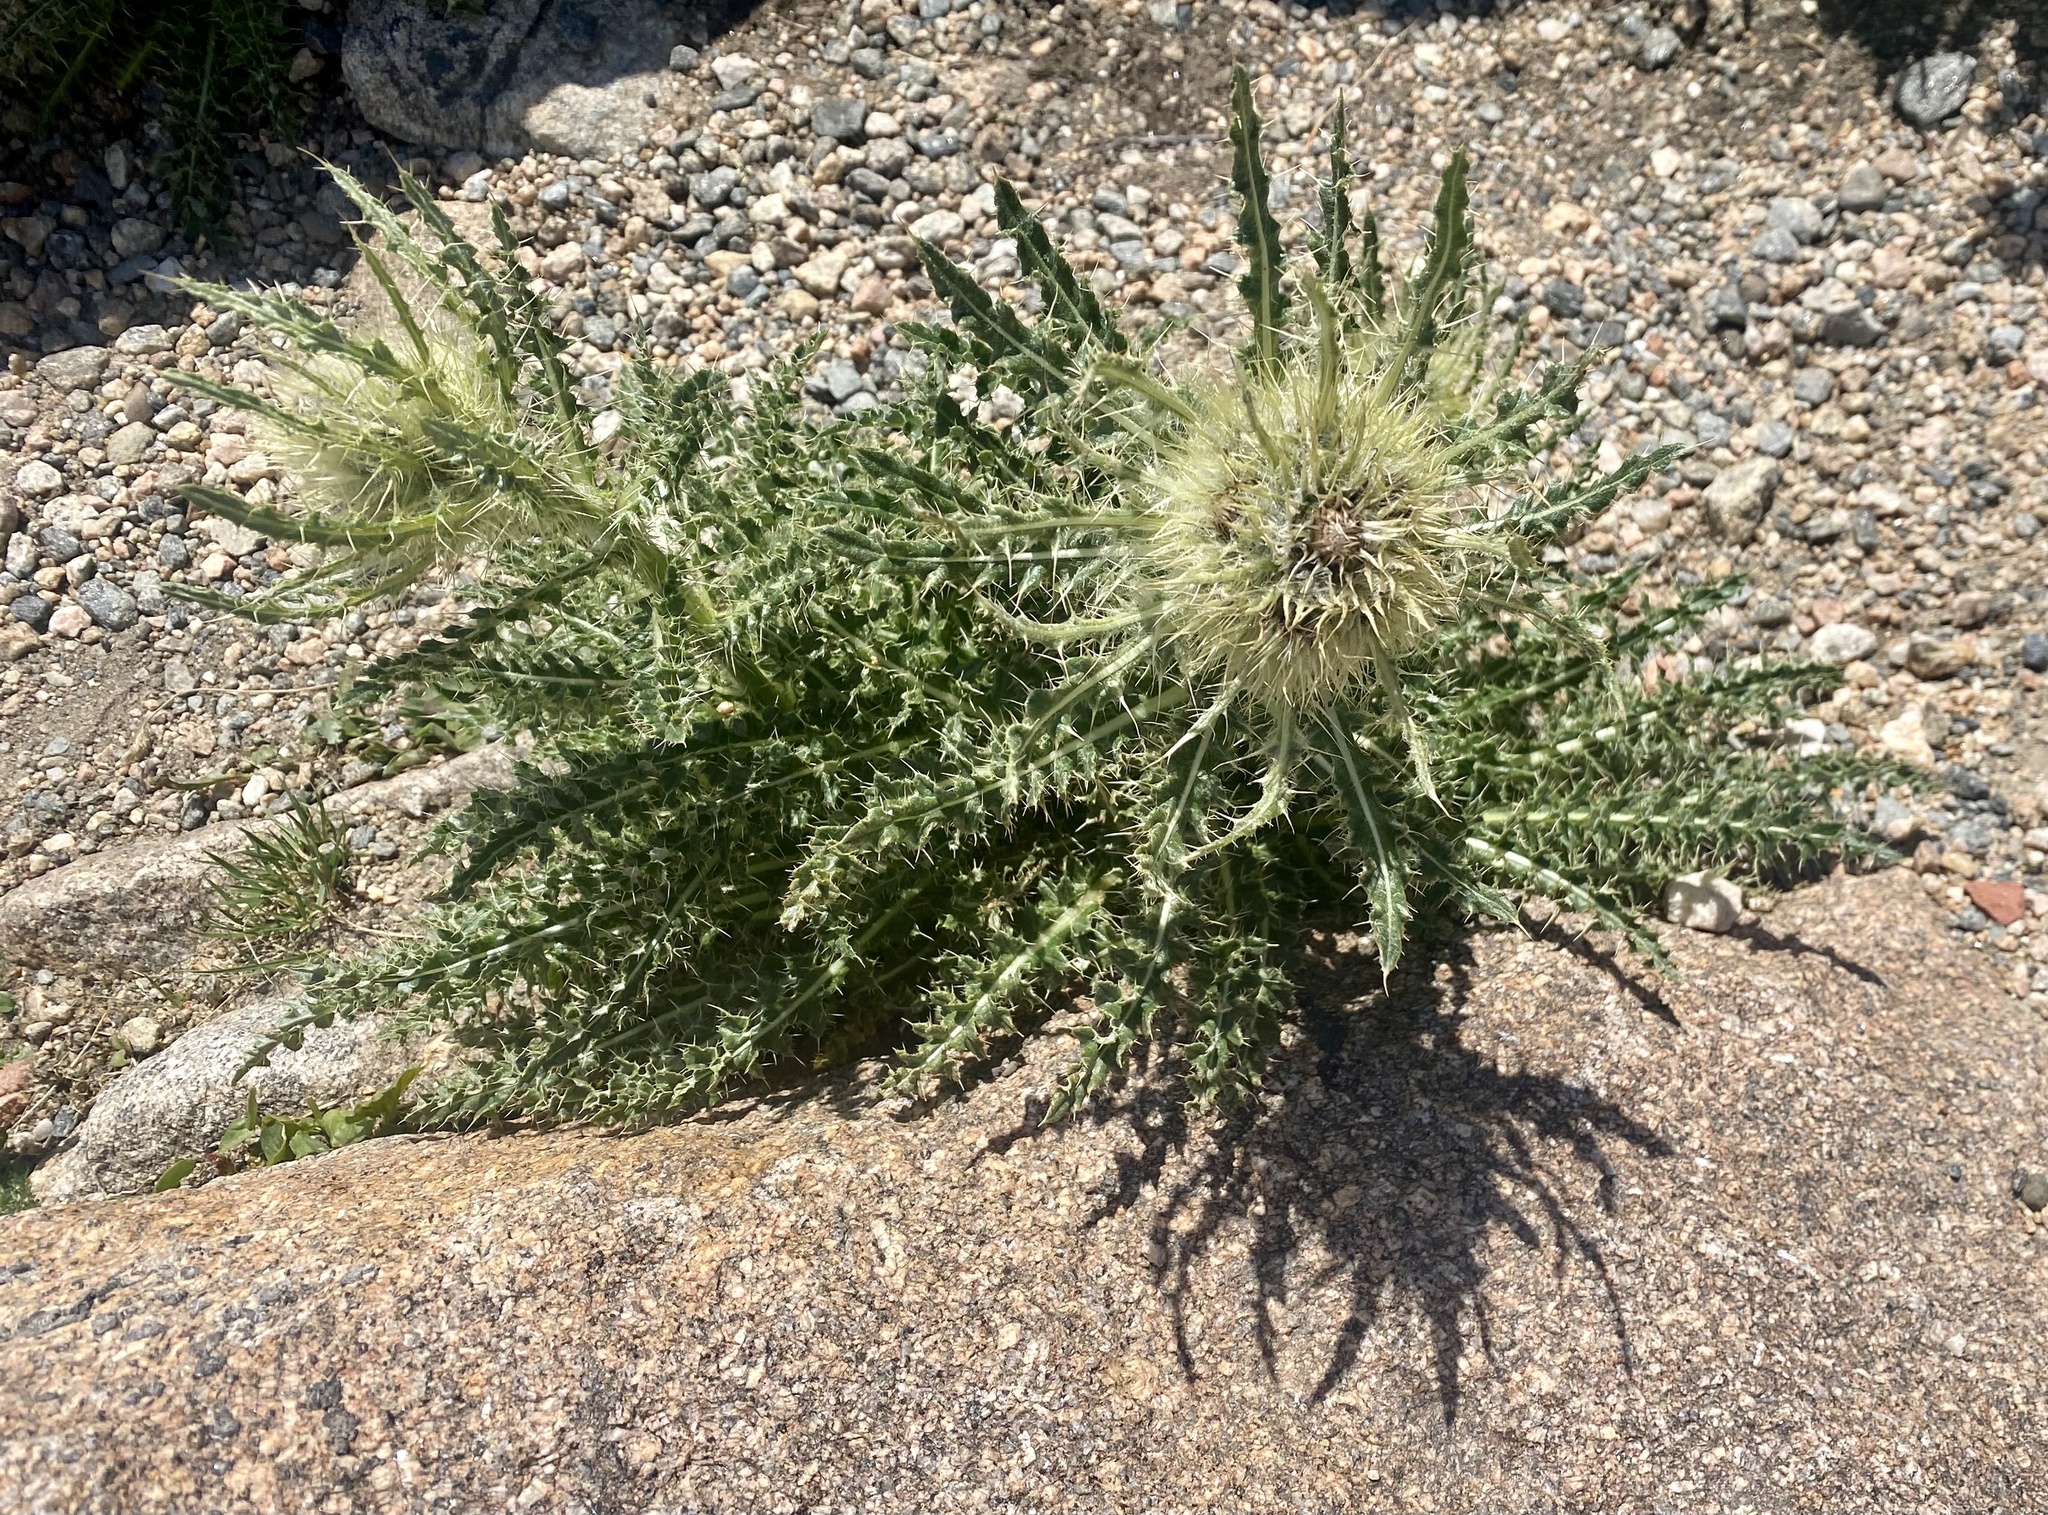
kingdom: Plantae
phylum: Tracheophyta
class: Magnoliopsida
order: Asterales
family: Asteraceae
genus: Cirsium
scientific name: Cirsium scopulorum
